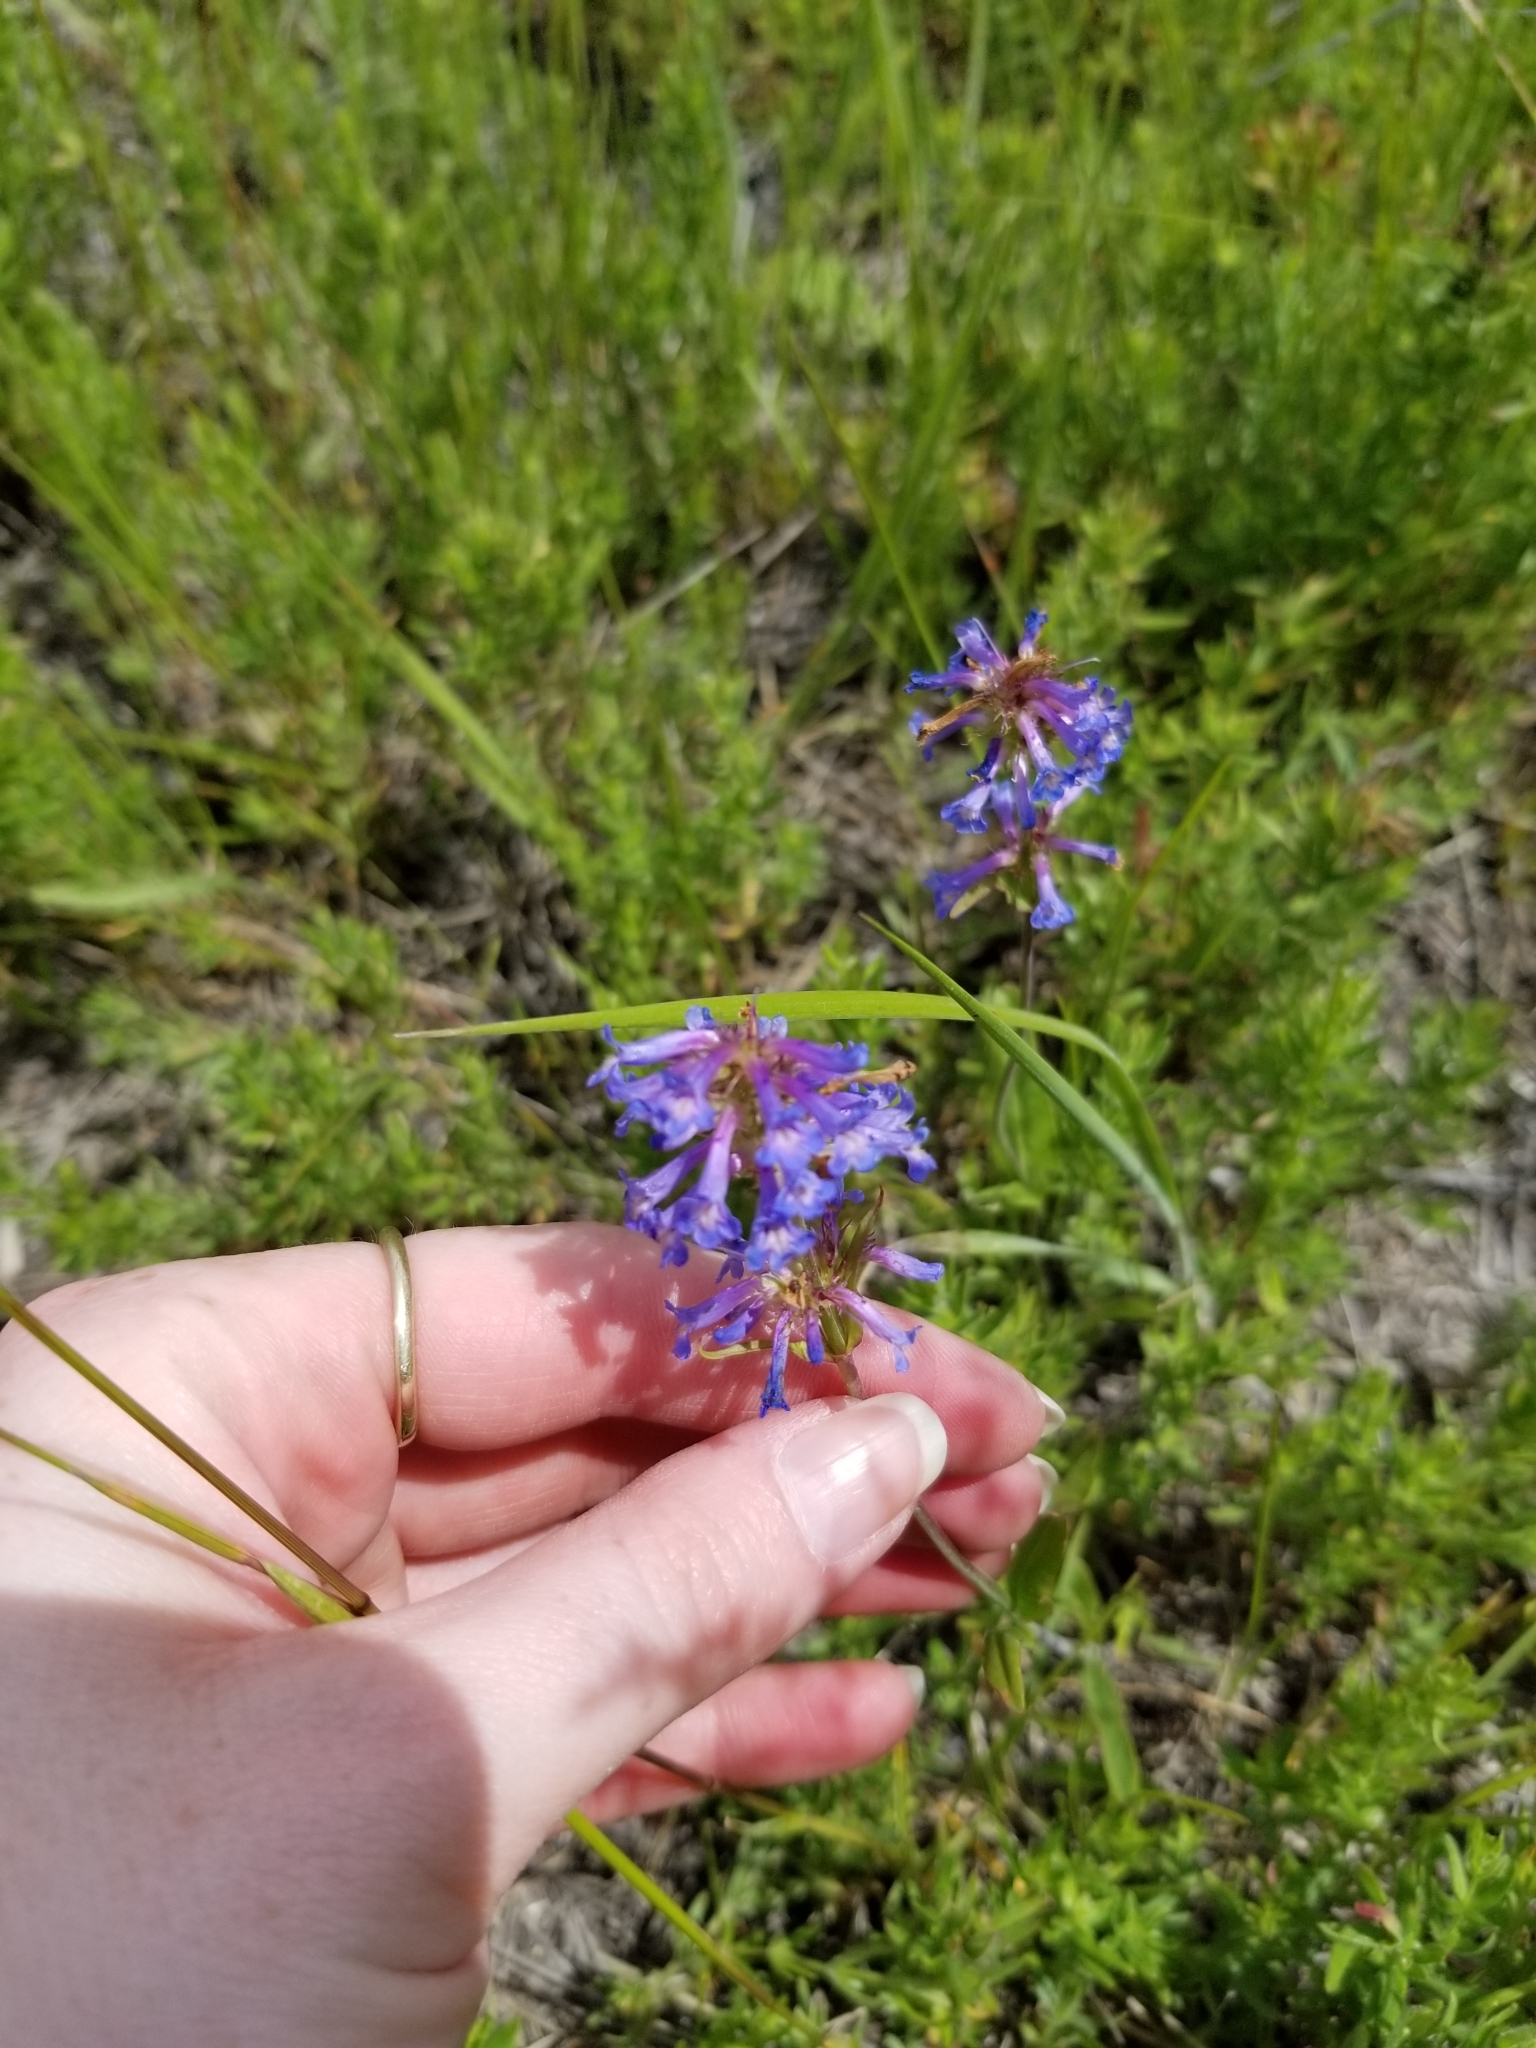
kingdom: Plantae
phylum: Tracheophyta
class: Magnoliopsida
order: Lamiales
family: Plantaginaceae
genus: Penstemon
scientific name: Penstemon procerus
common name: Small-flower penstemon
